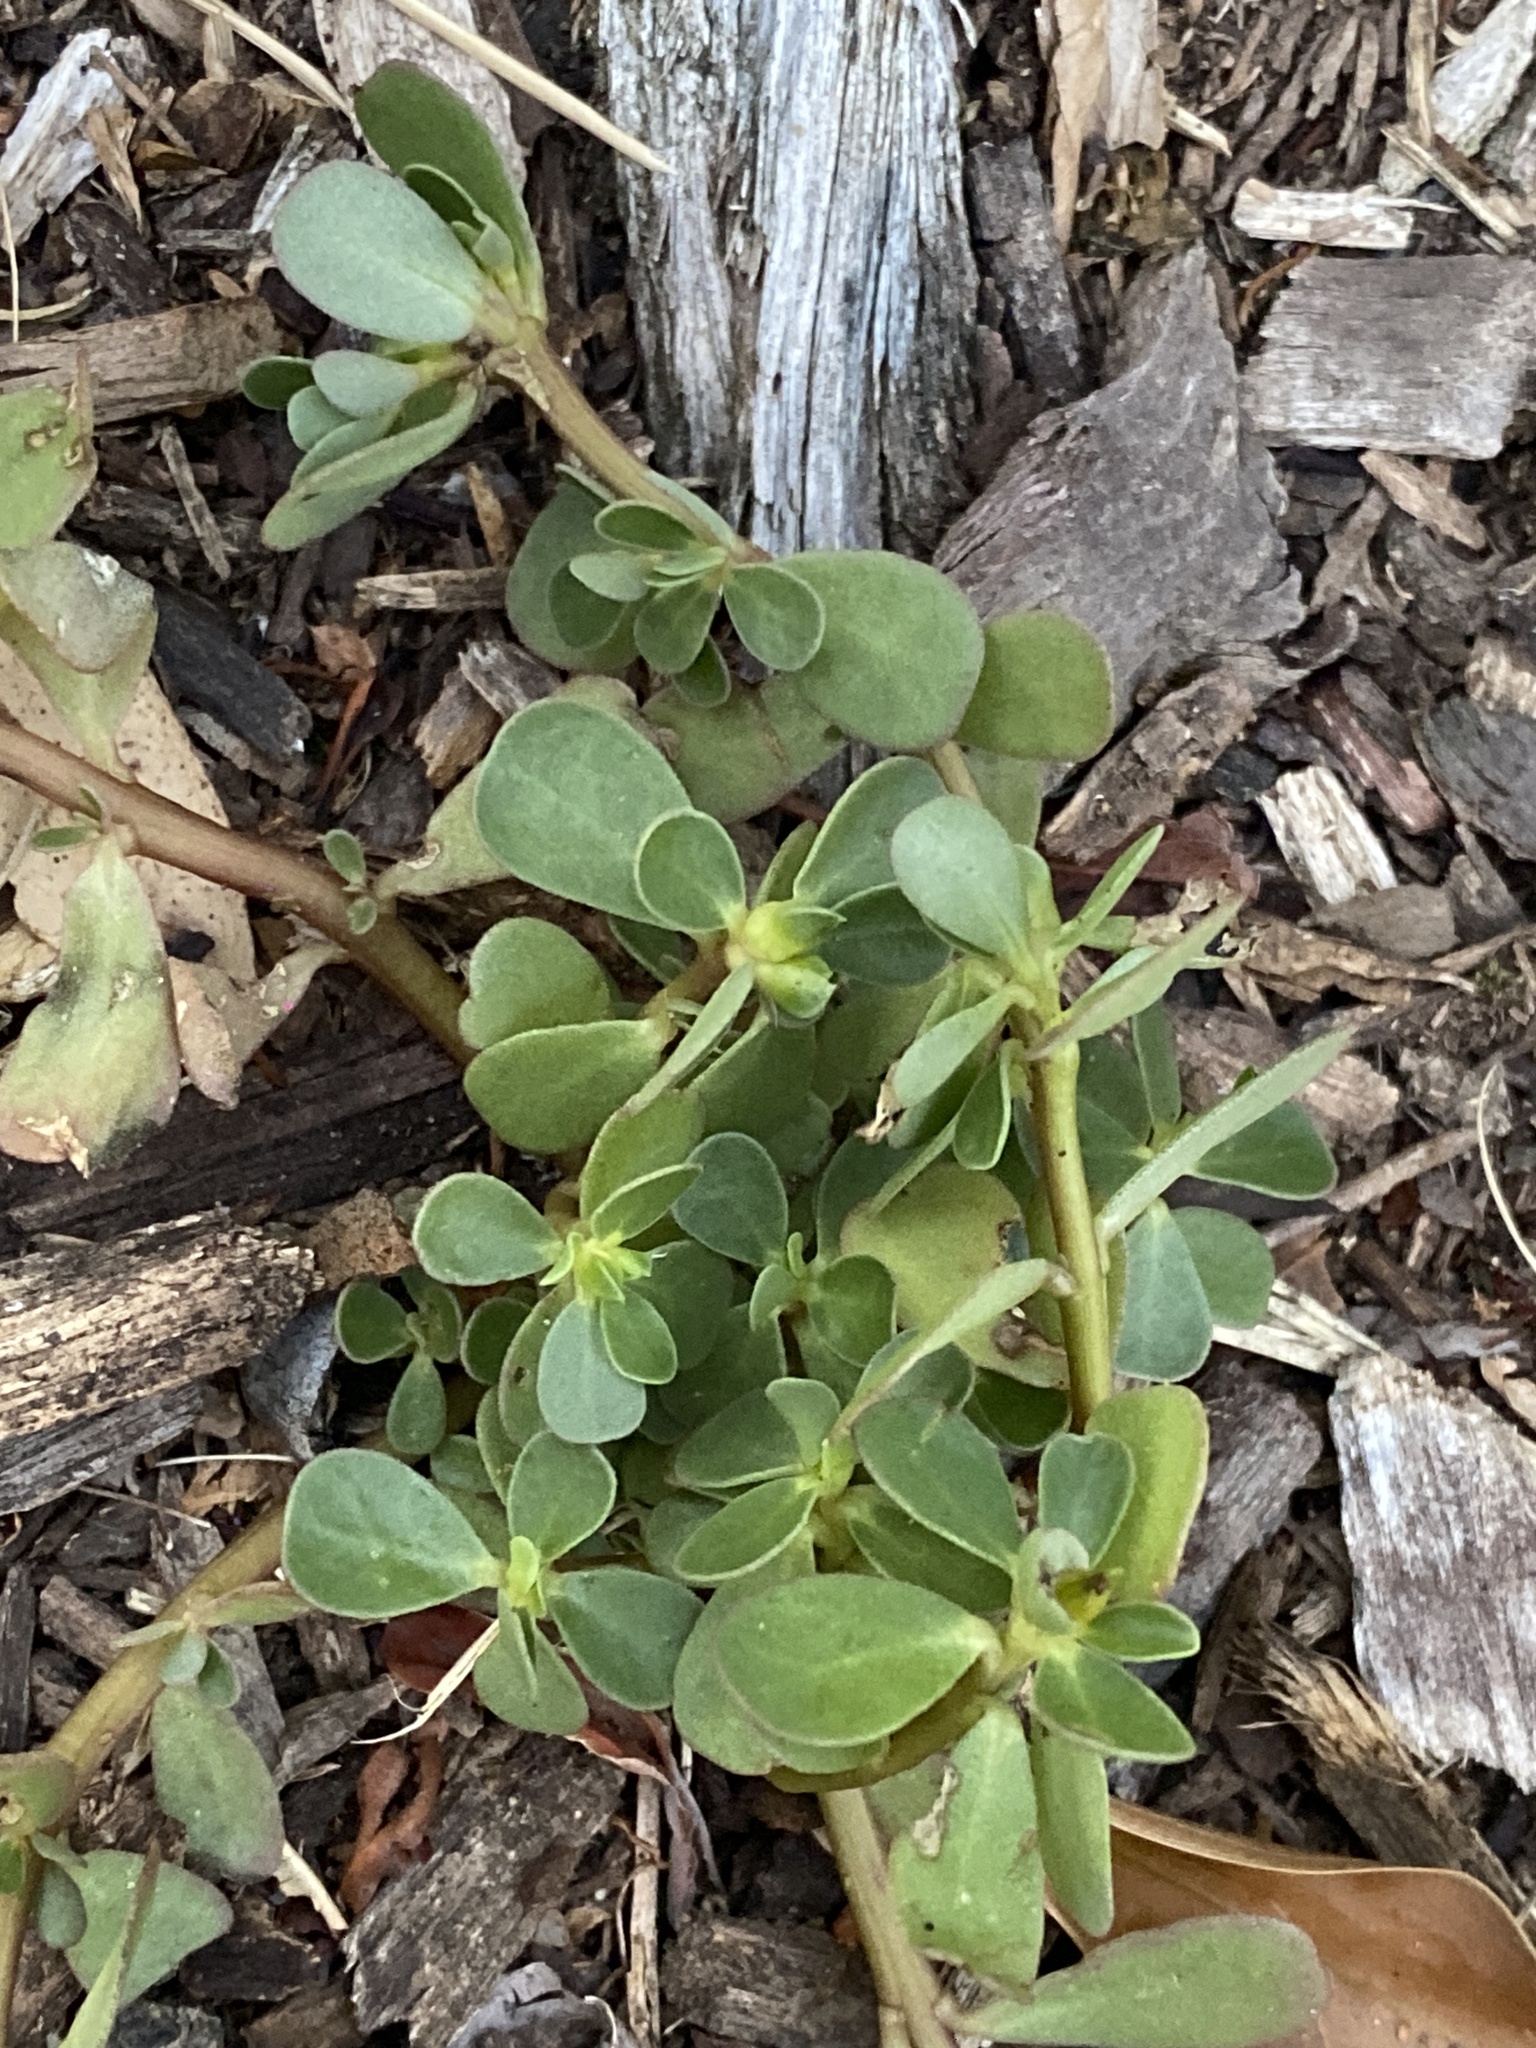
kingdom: Plantae
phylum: Tracheophyta
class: Magnoliopsida
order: Caryophyllales
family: Portulacaceae
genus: Portulaca
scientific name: Portulaca oleracea
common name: Common purslane
